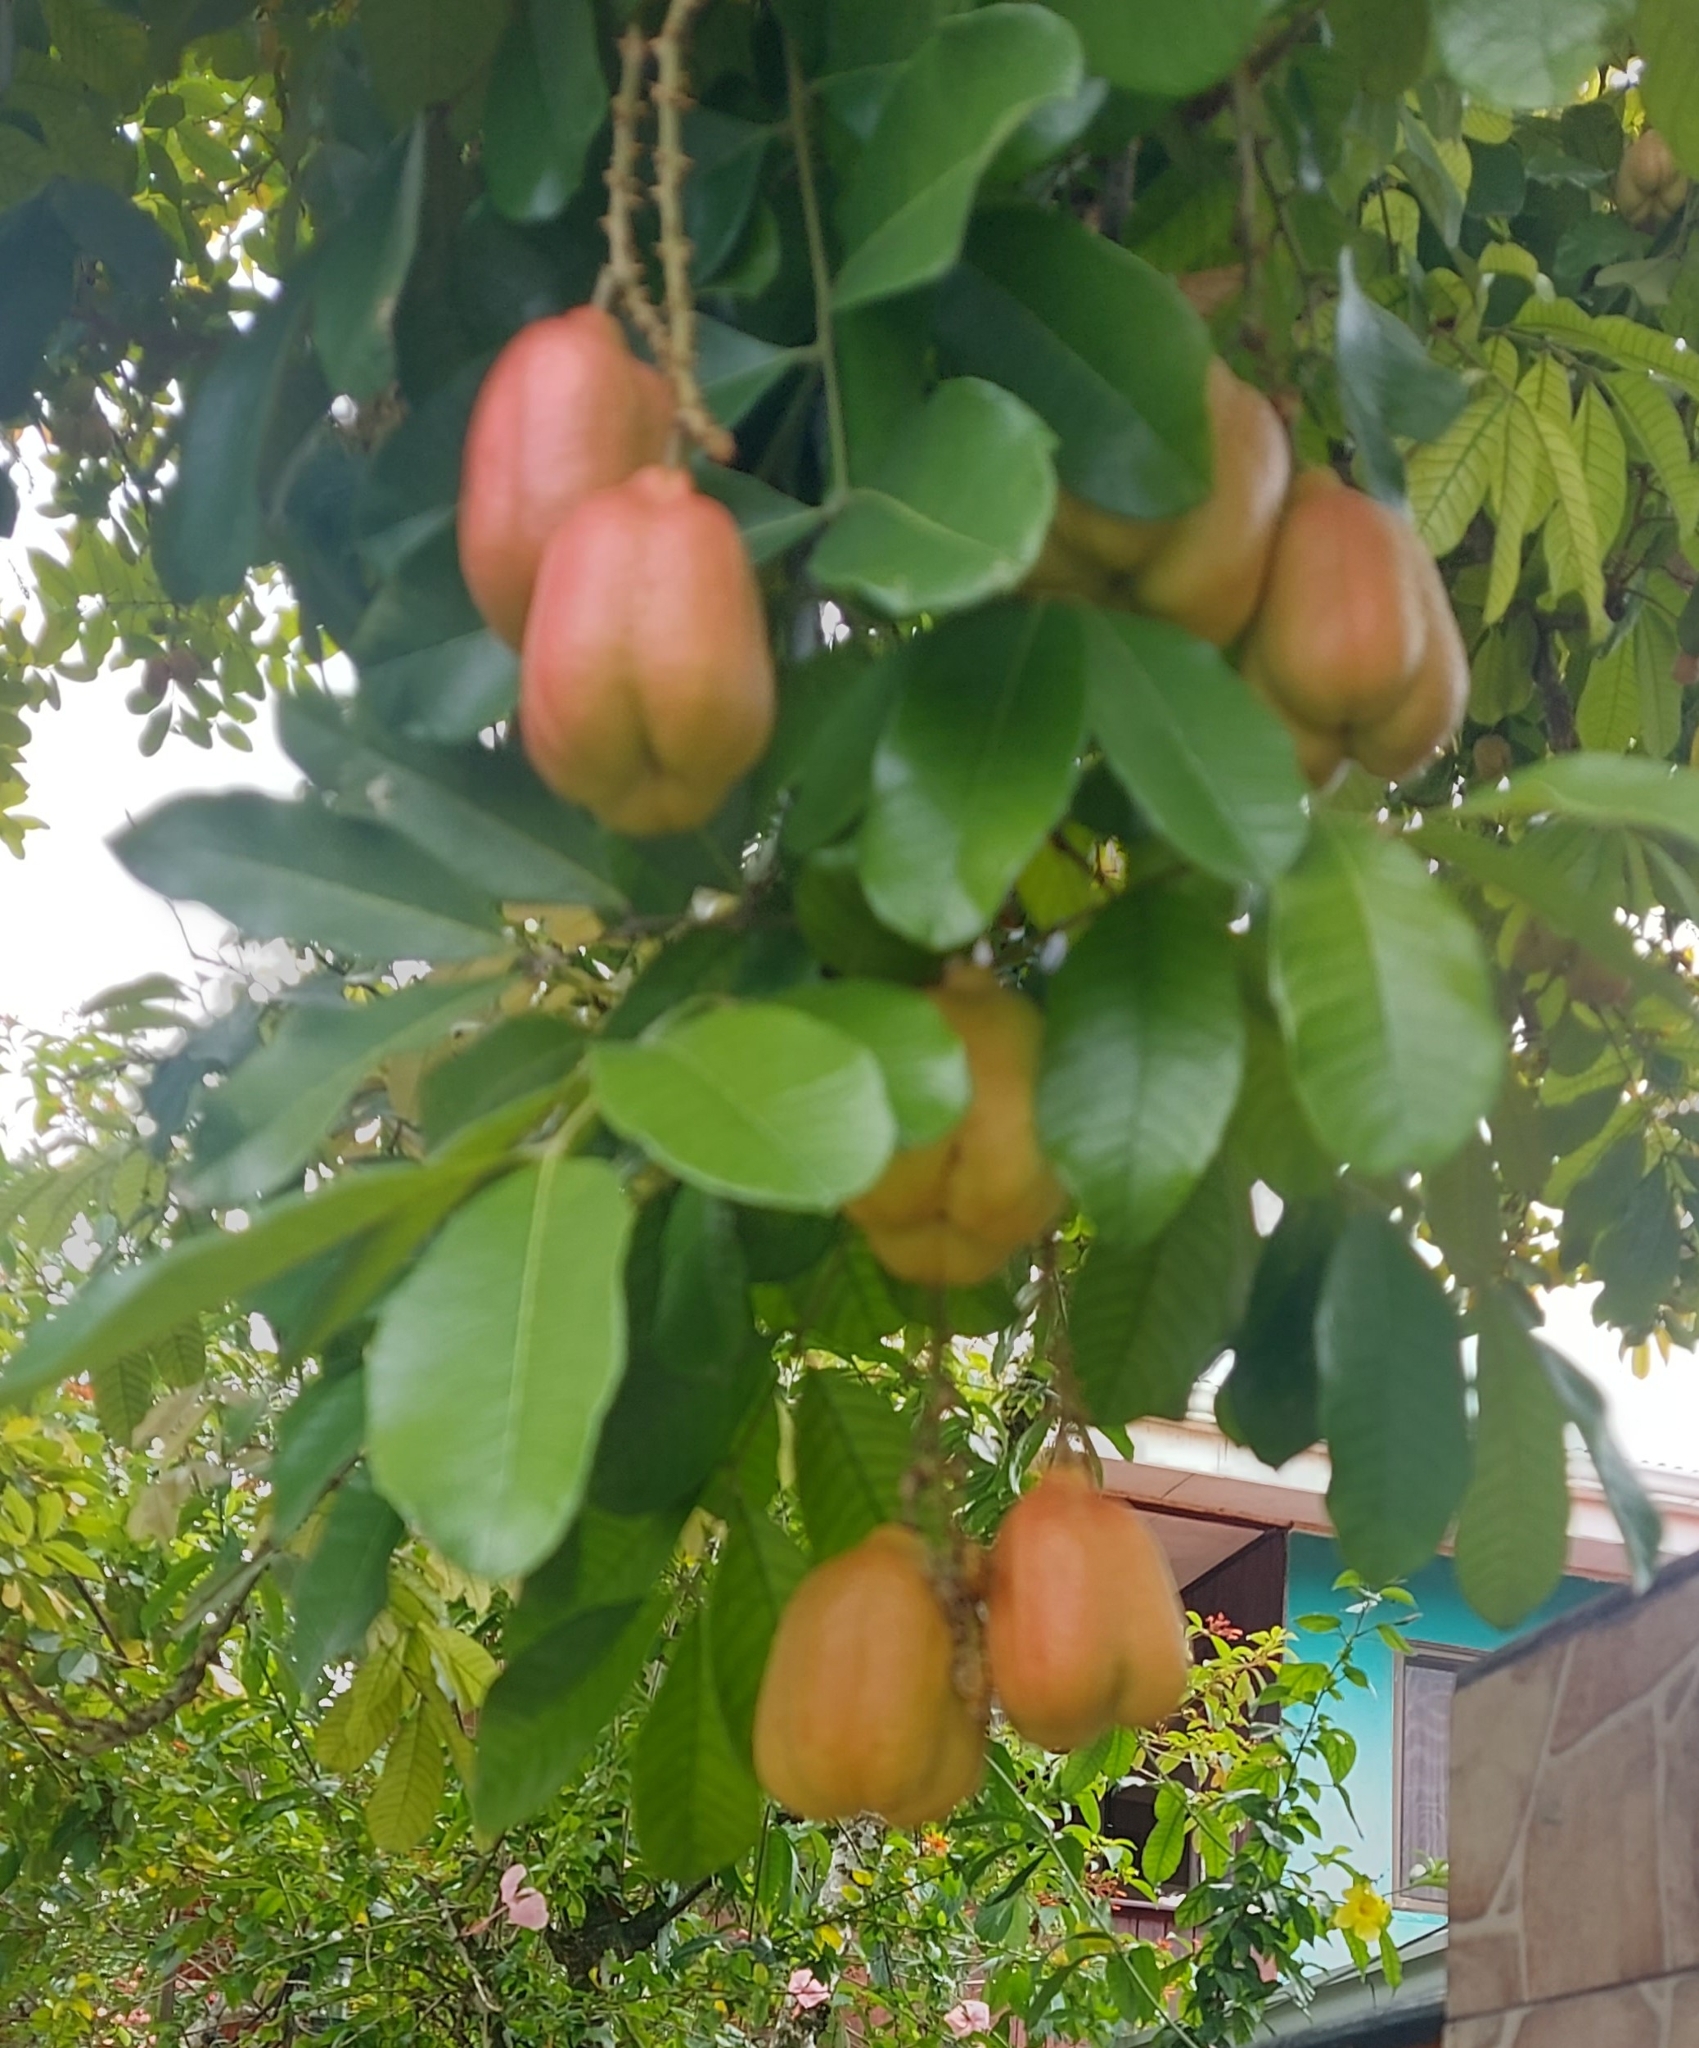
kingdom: Plantae
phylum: Tracheophyta
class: Magnoliopsida
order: Sapindales
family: Sapindaceae
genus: Blighia
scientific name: Blighia sapida
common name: Akee
